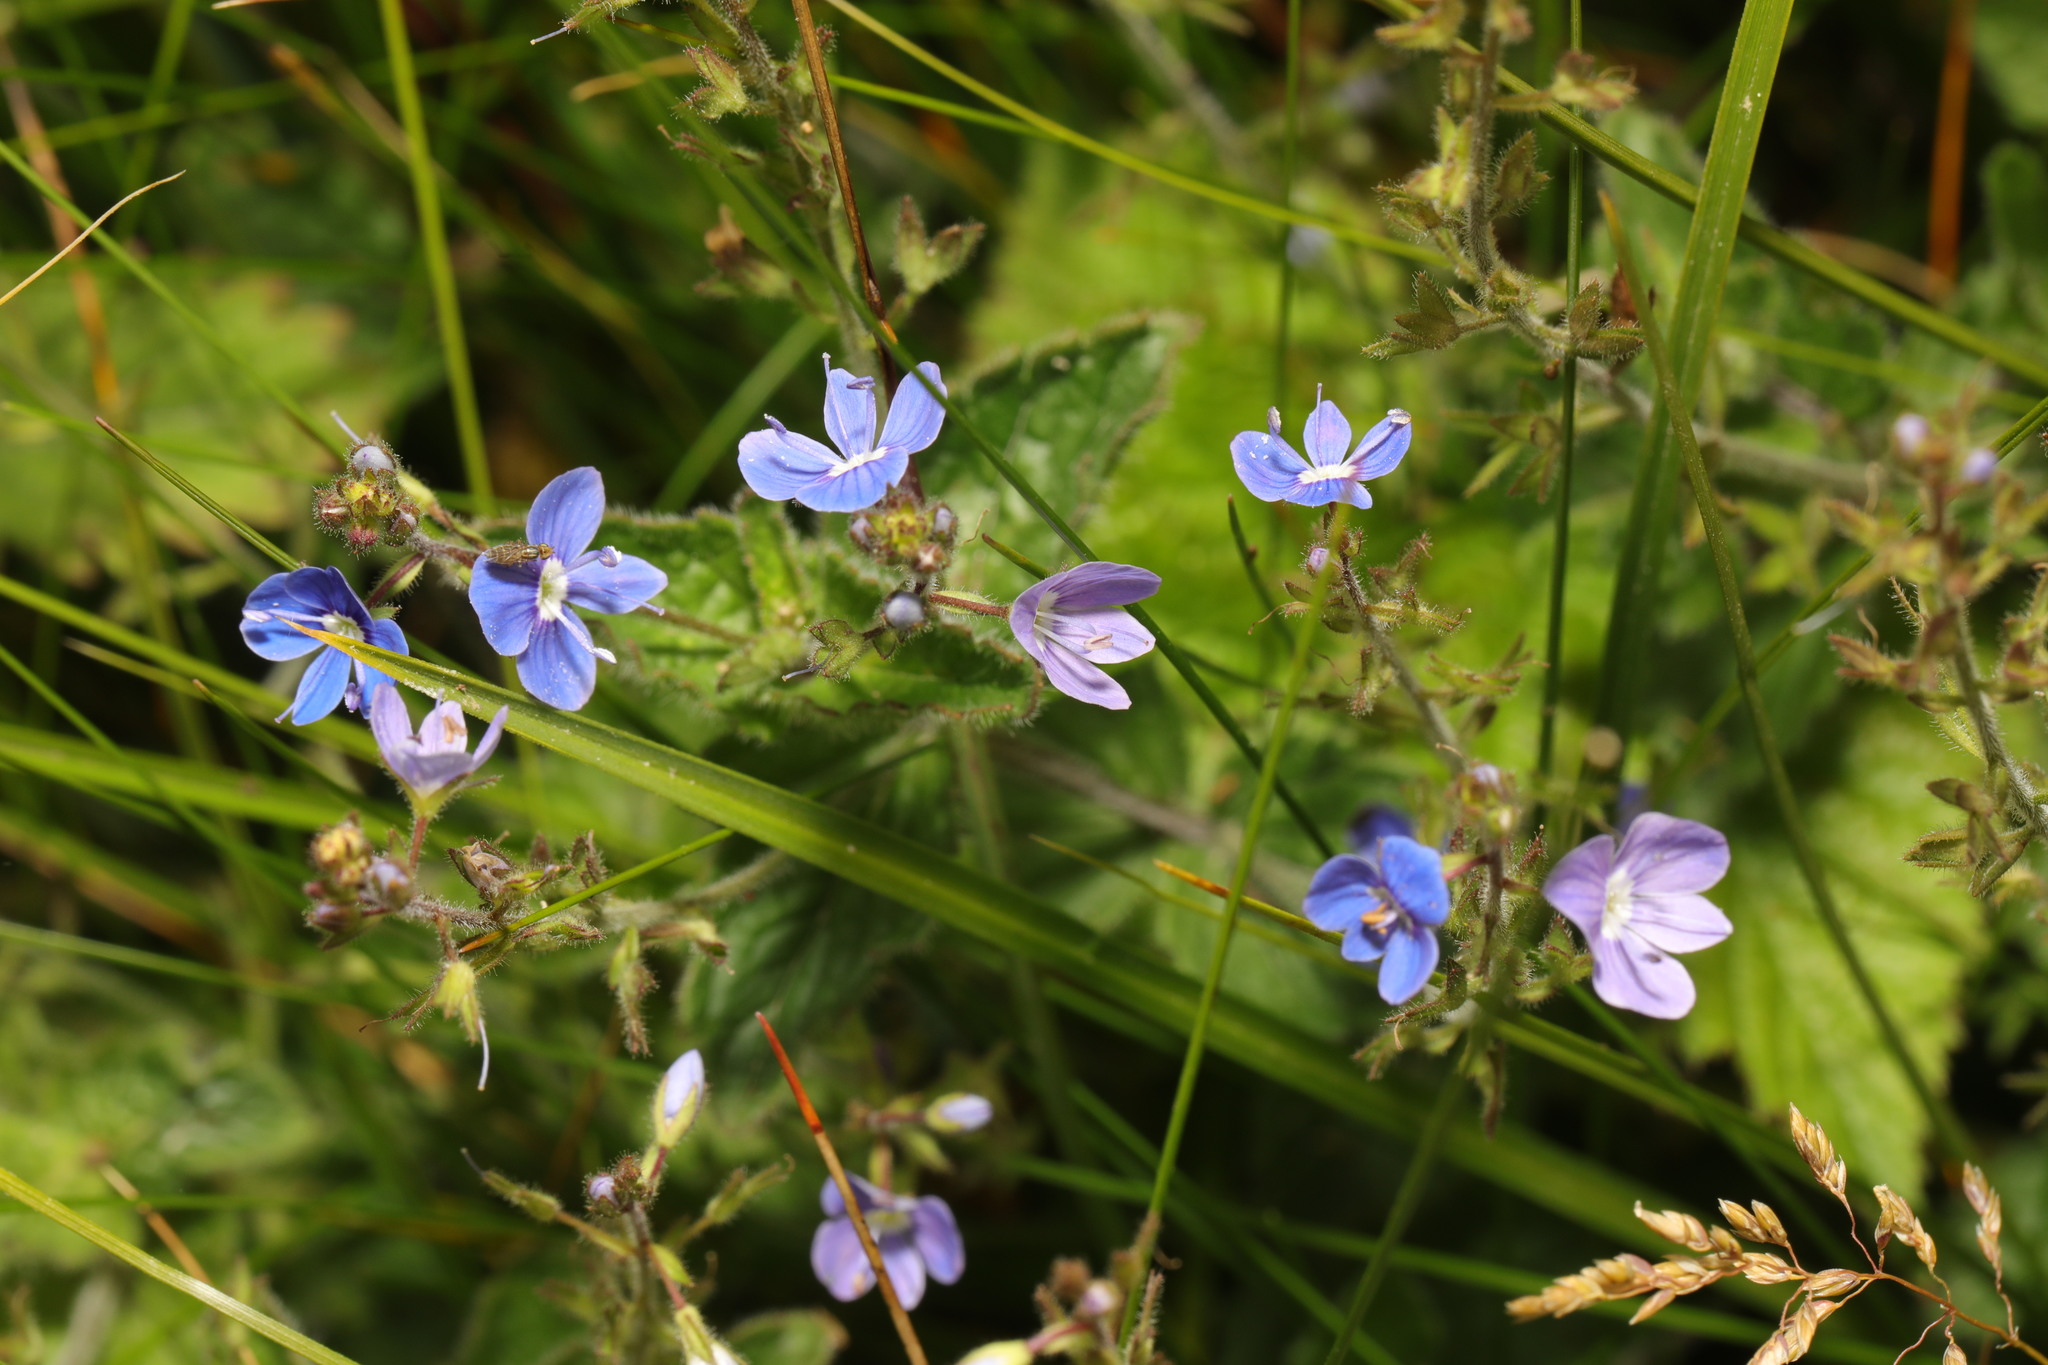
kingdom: Plantae
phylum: Tracheophyta
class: Magnoliopsida
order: Lamiales
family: Plantaginaceae
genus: Veronica
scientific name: Veronica chamaedrys
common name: Germander speedwell
